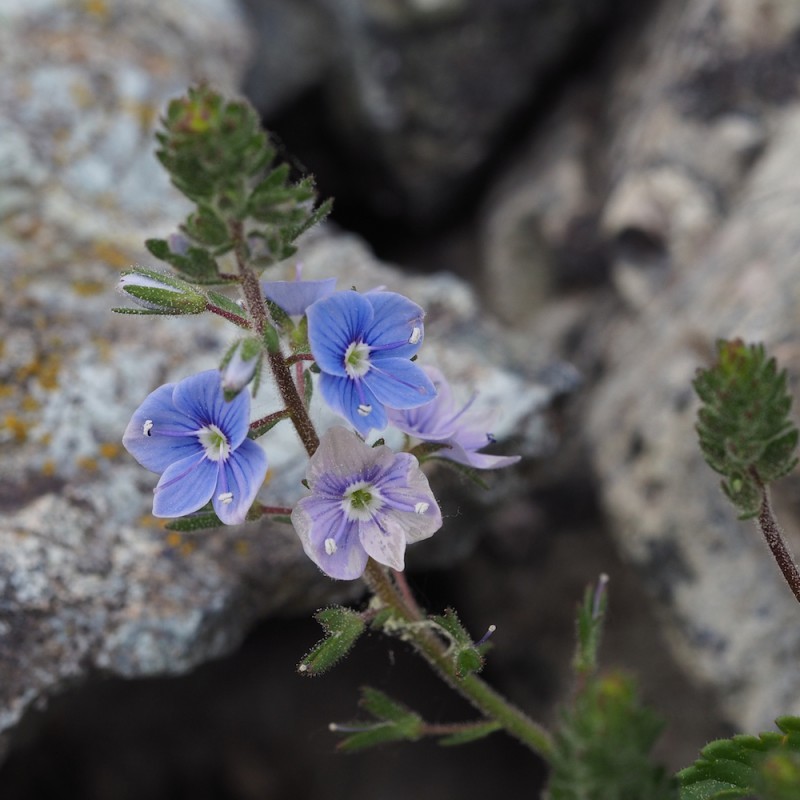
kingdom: Plantae
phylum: Tracheophyta
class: Magnoliopsida
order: Lamiales
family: Plantaginaceae
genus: Veronica
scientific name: Veronica chamaedrys
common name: Germander speedwell
